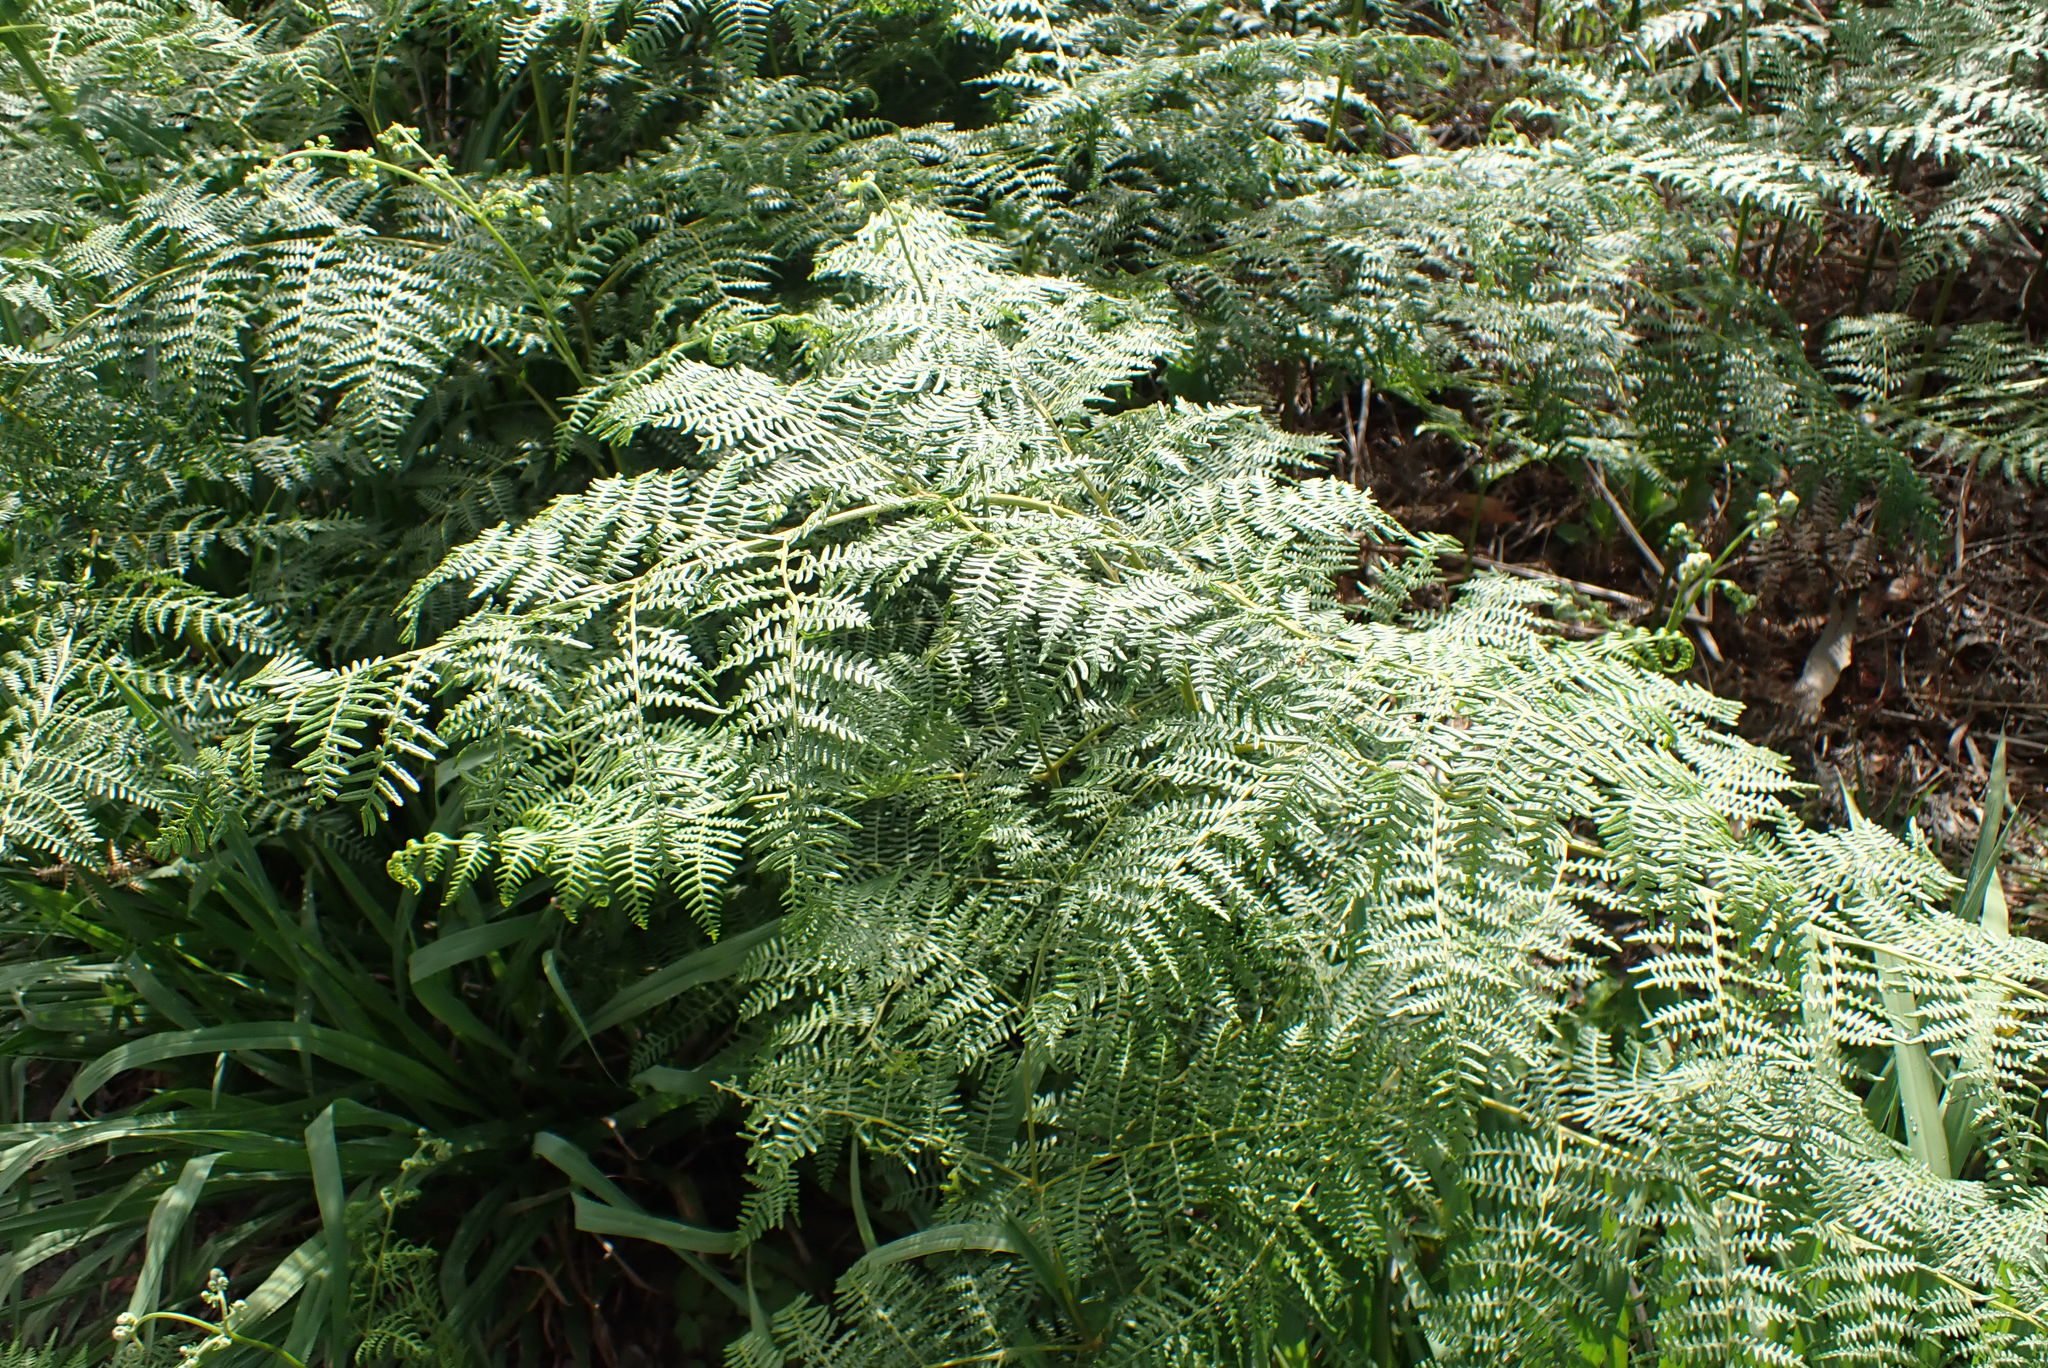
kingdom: Plantae
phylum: Tracheophyta
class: Polypodiopsida
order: Polypodiales
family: Dennstaedtiaceae
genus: Pteridium
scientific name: Pteridium aquilinum
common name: Bracken
